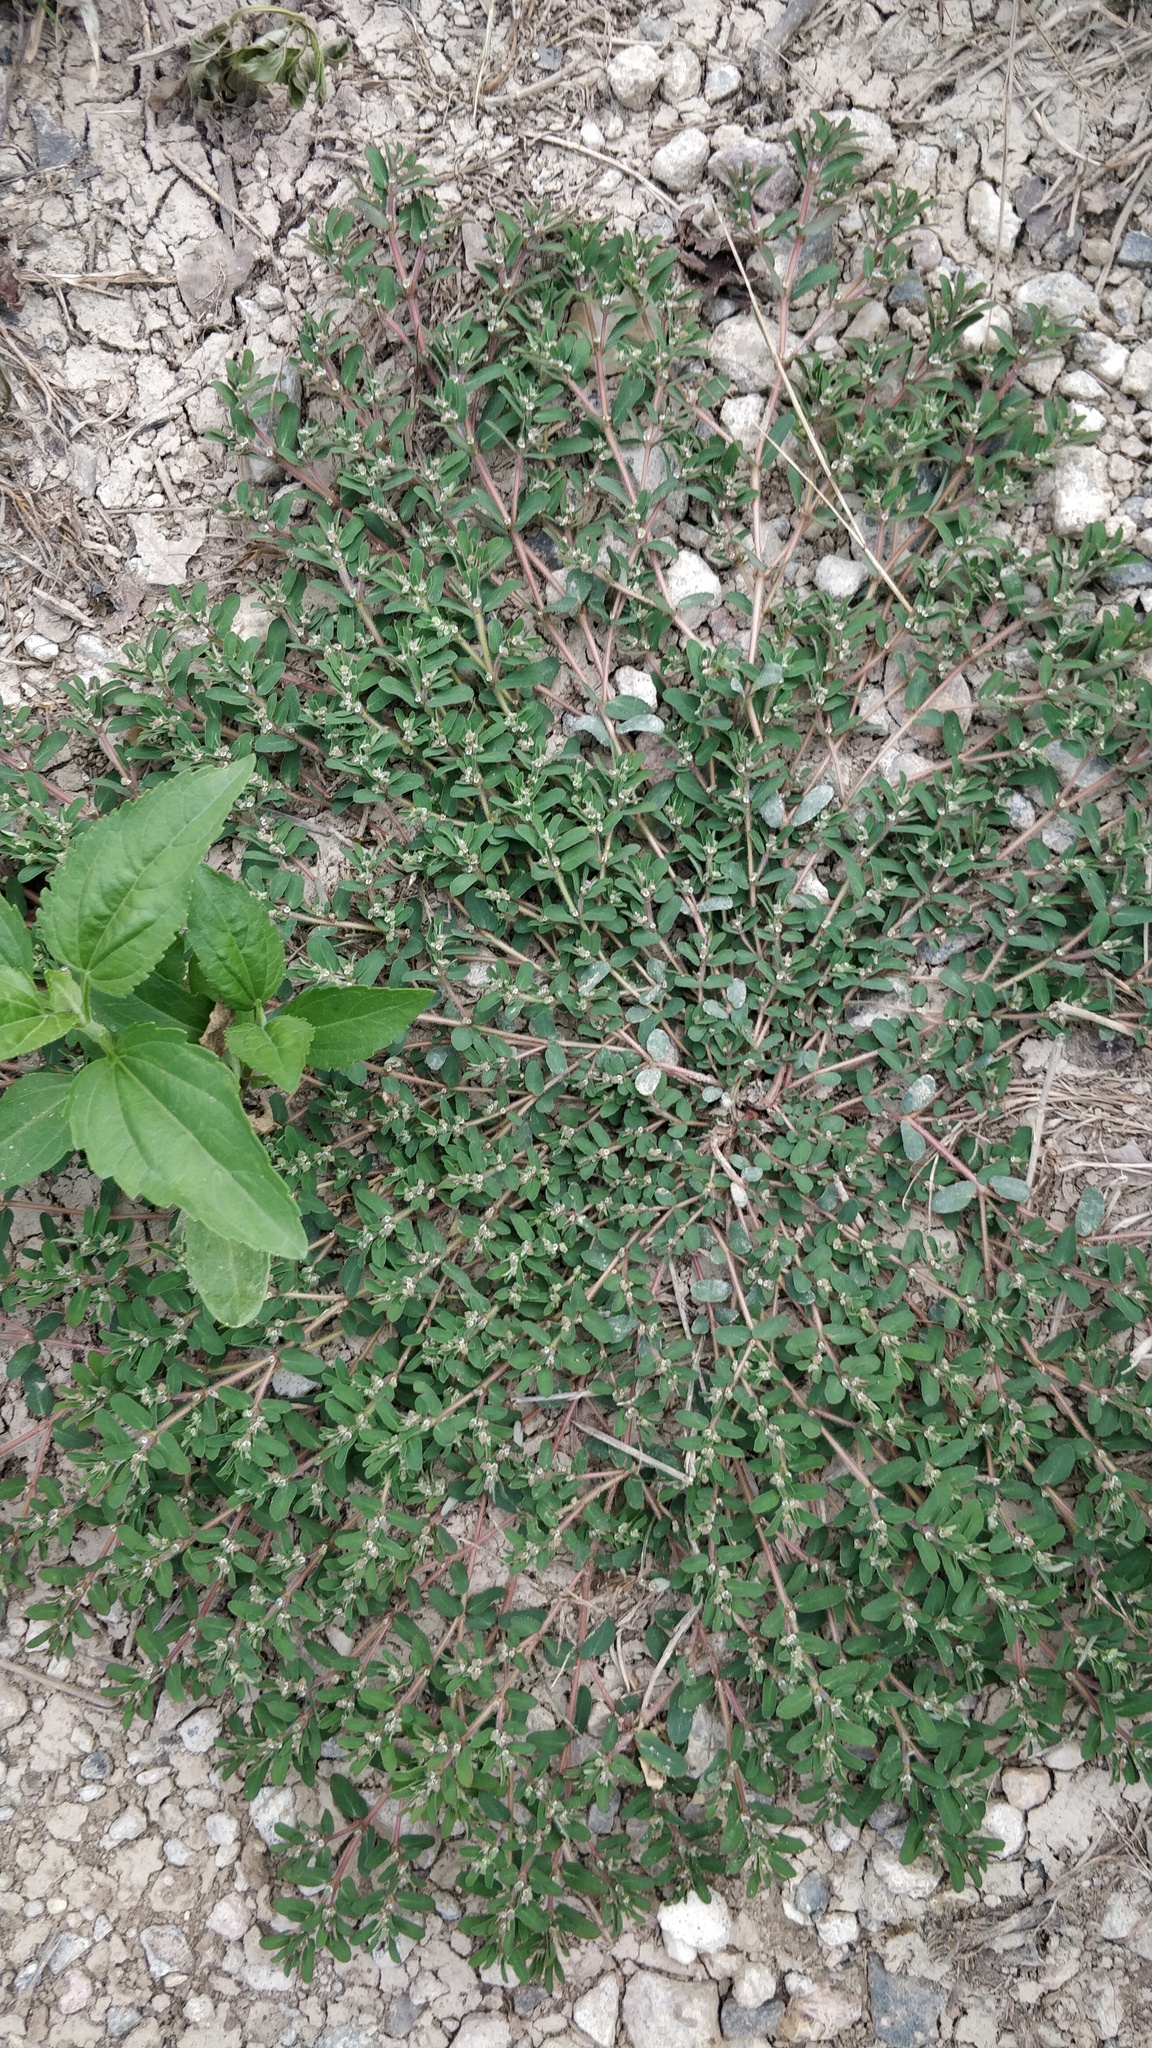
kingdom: Plantae
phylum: Tracheophyta
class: Magnoliopsida
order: Malpighiales
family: Euphorbiaceae
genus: Euphorbia
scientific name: Euphorbia maculata
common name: Spotted spurge
